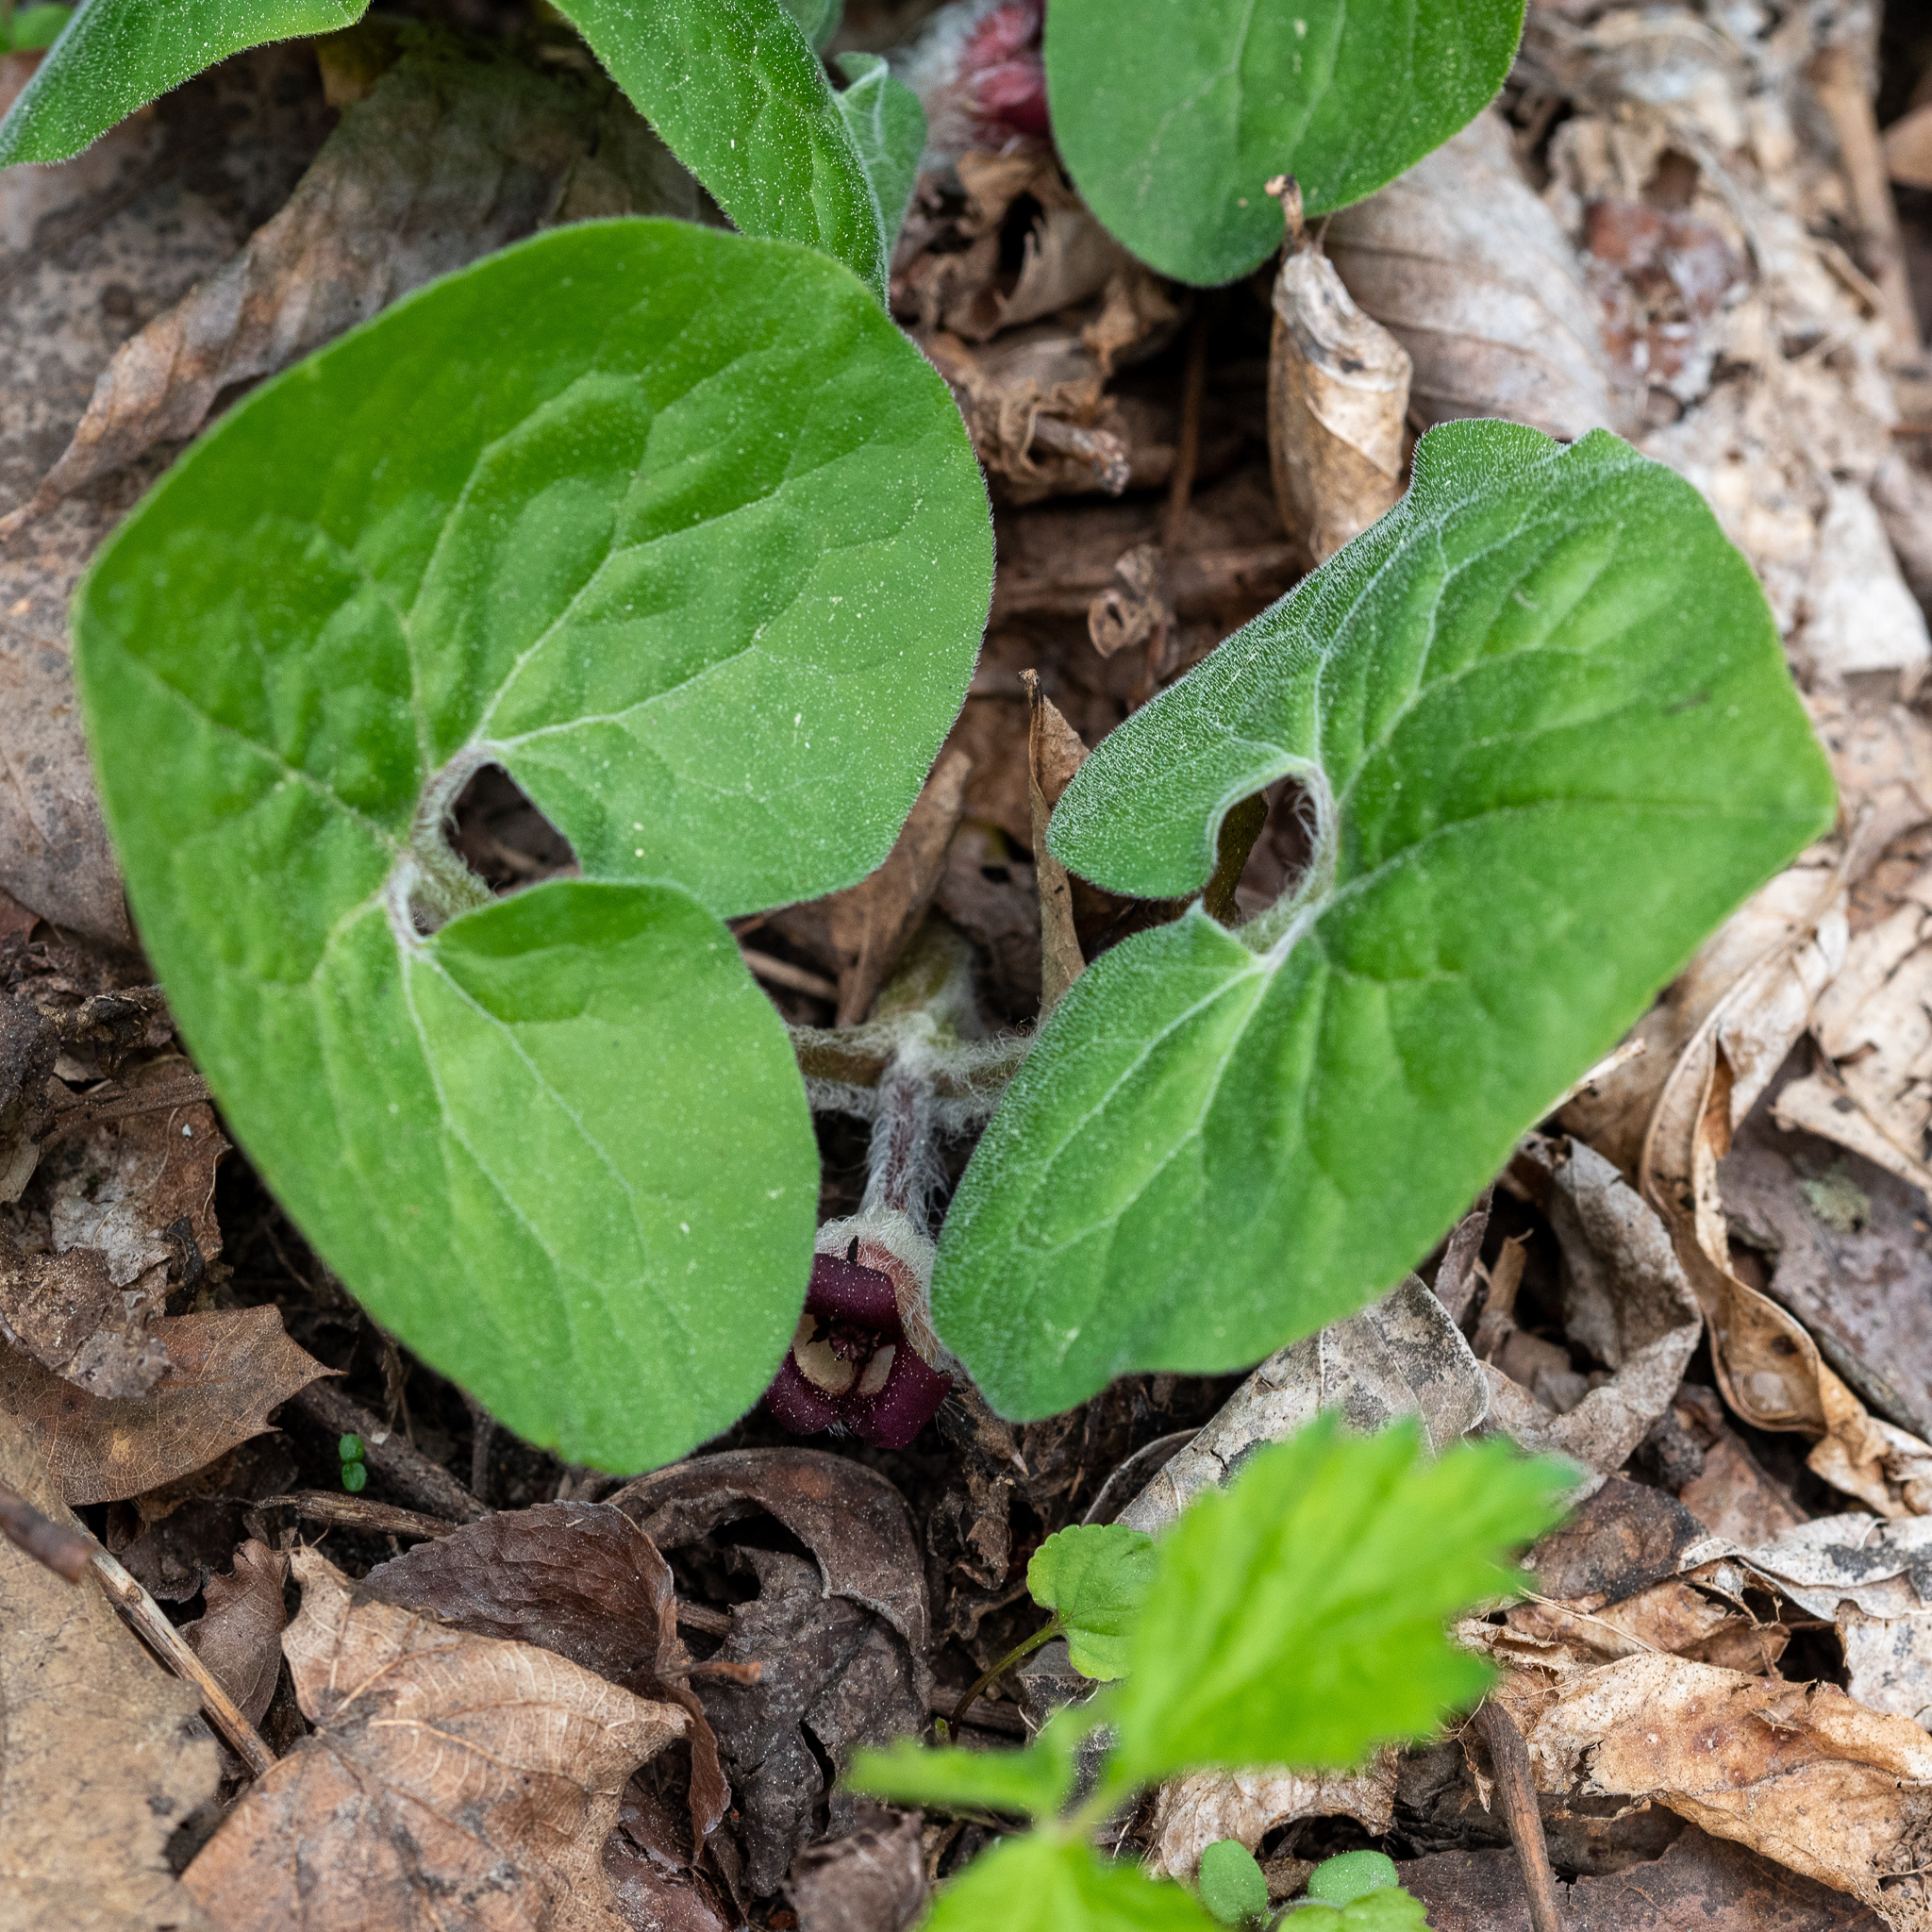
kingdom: Plantae
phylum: Tracheophyta
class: Magnoliopsida
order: Piperales
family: Aristolochiaceae
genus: Asarum
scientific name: Asarum canadense
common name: Wild ginger
